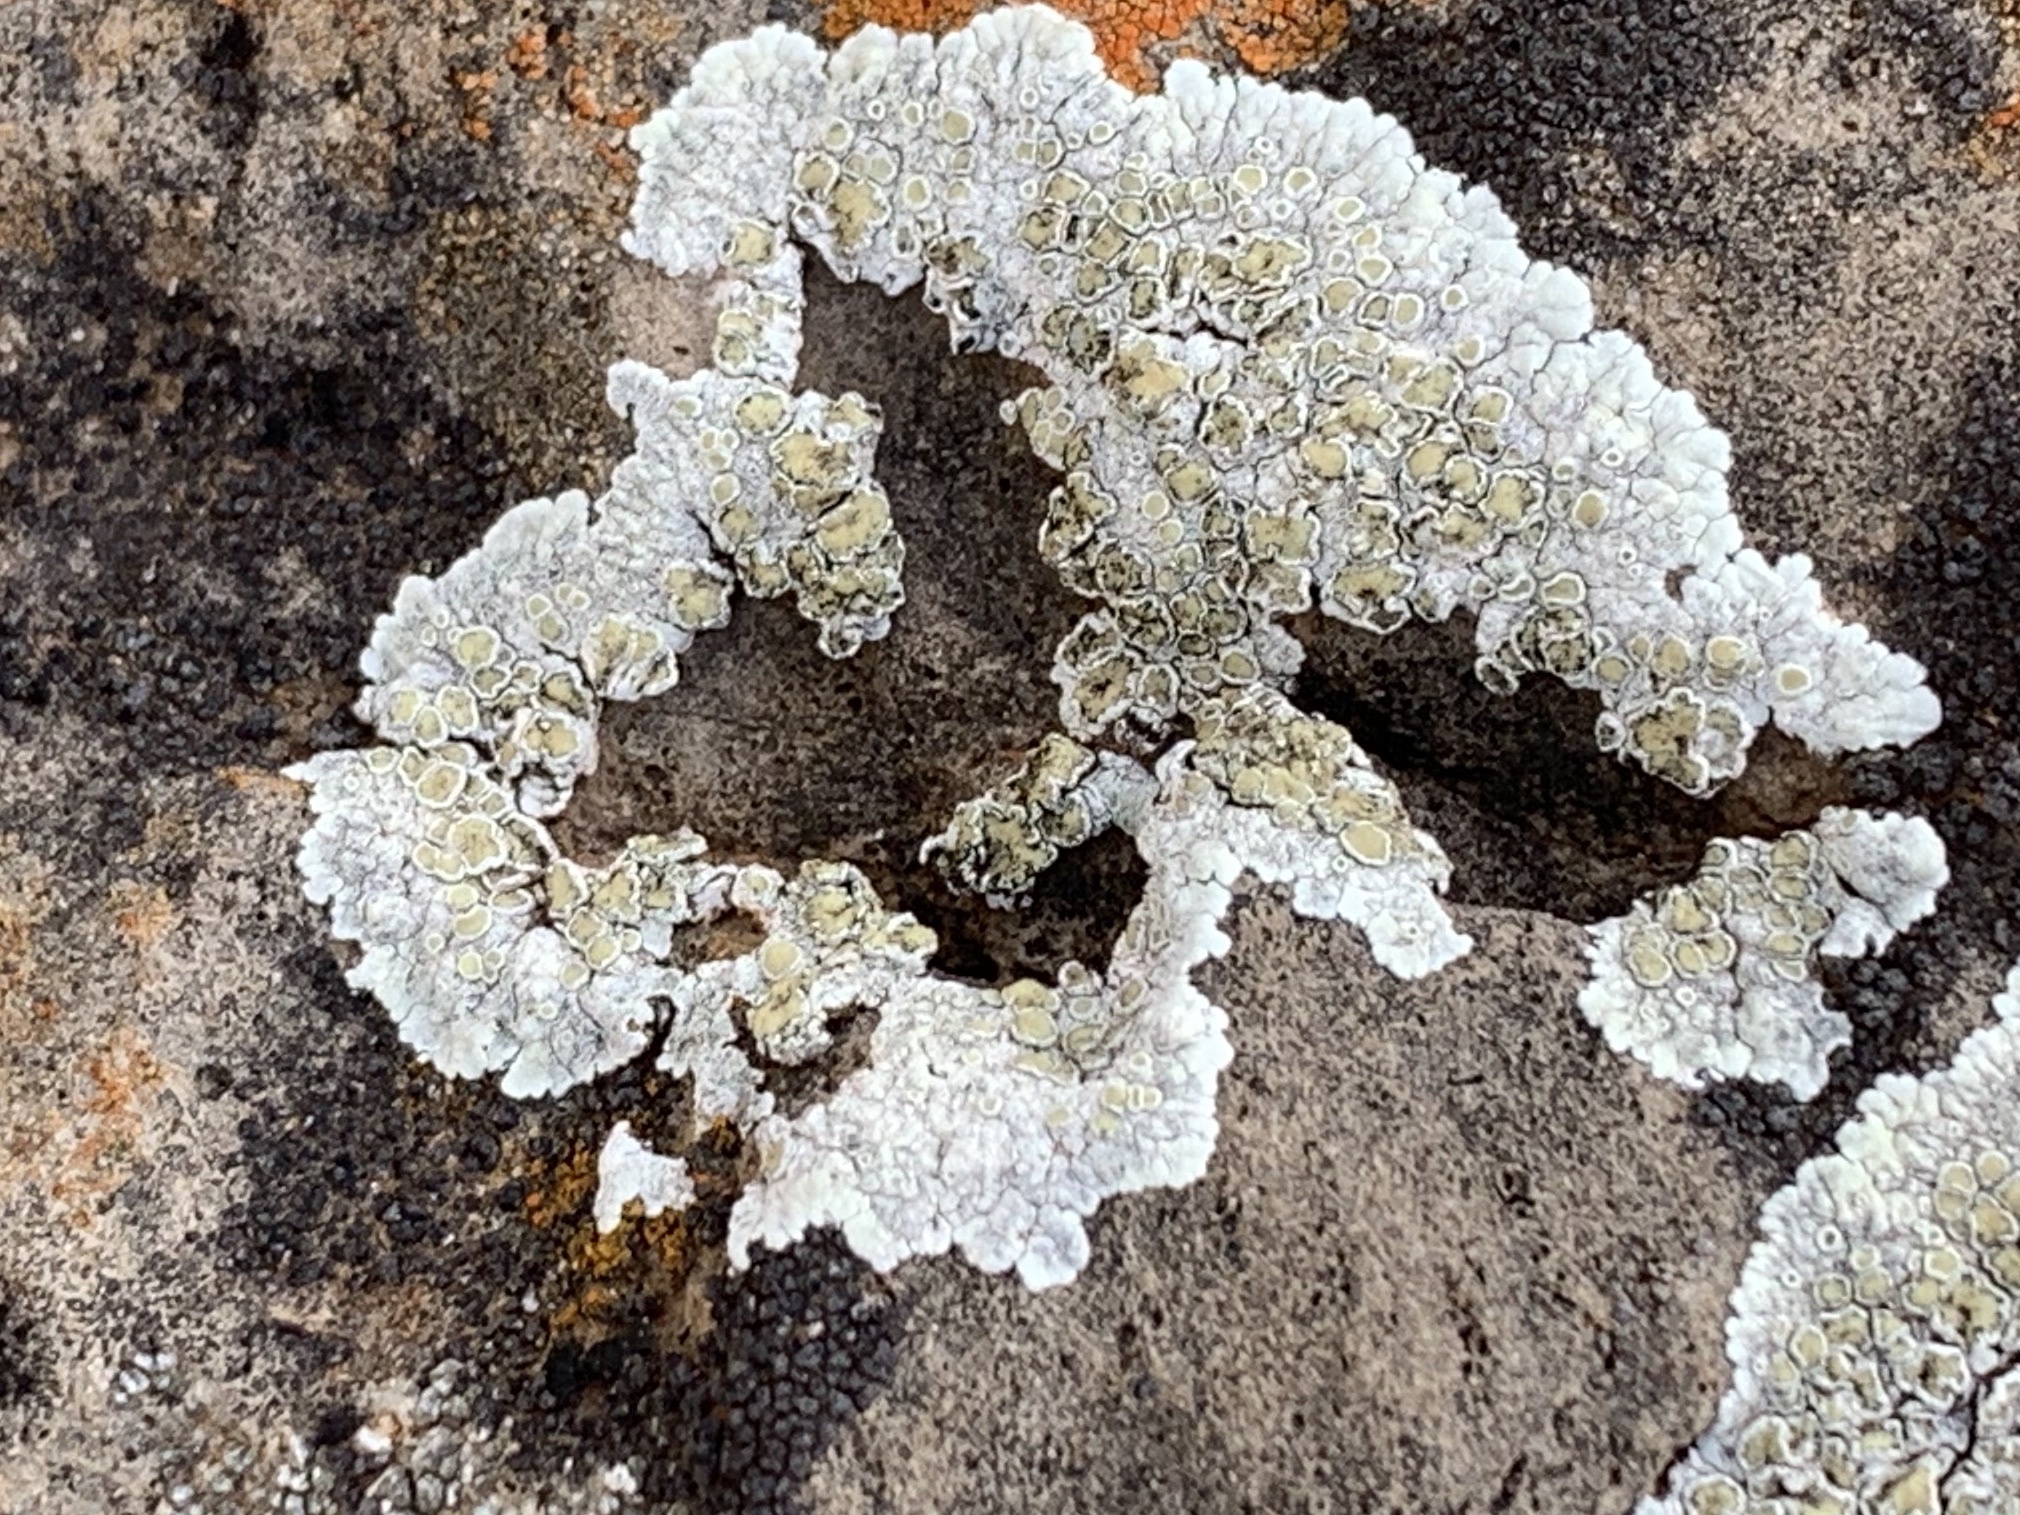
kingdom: Fungi
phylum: Ascomycota
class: Lecanoromycetes
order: Lecanorales
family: Lecanoraceae
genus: Protoparmeliopsis
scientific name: Protoparmeliopsis muralis
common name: Stonewall rim lichen
